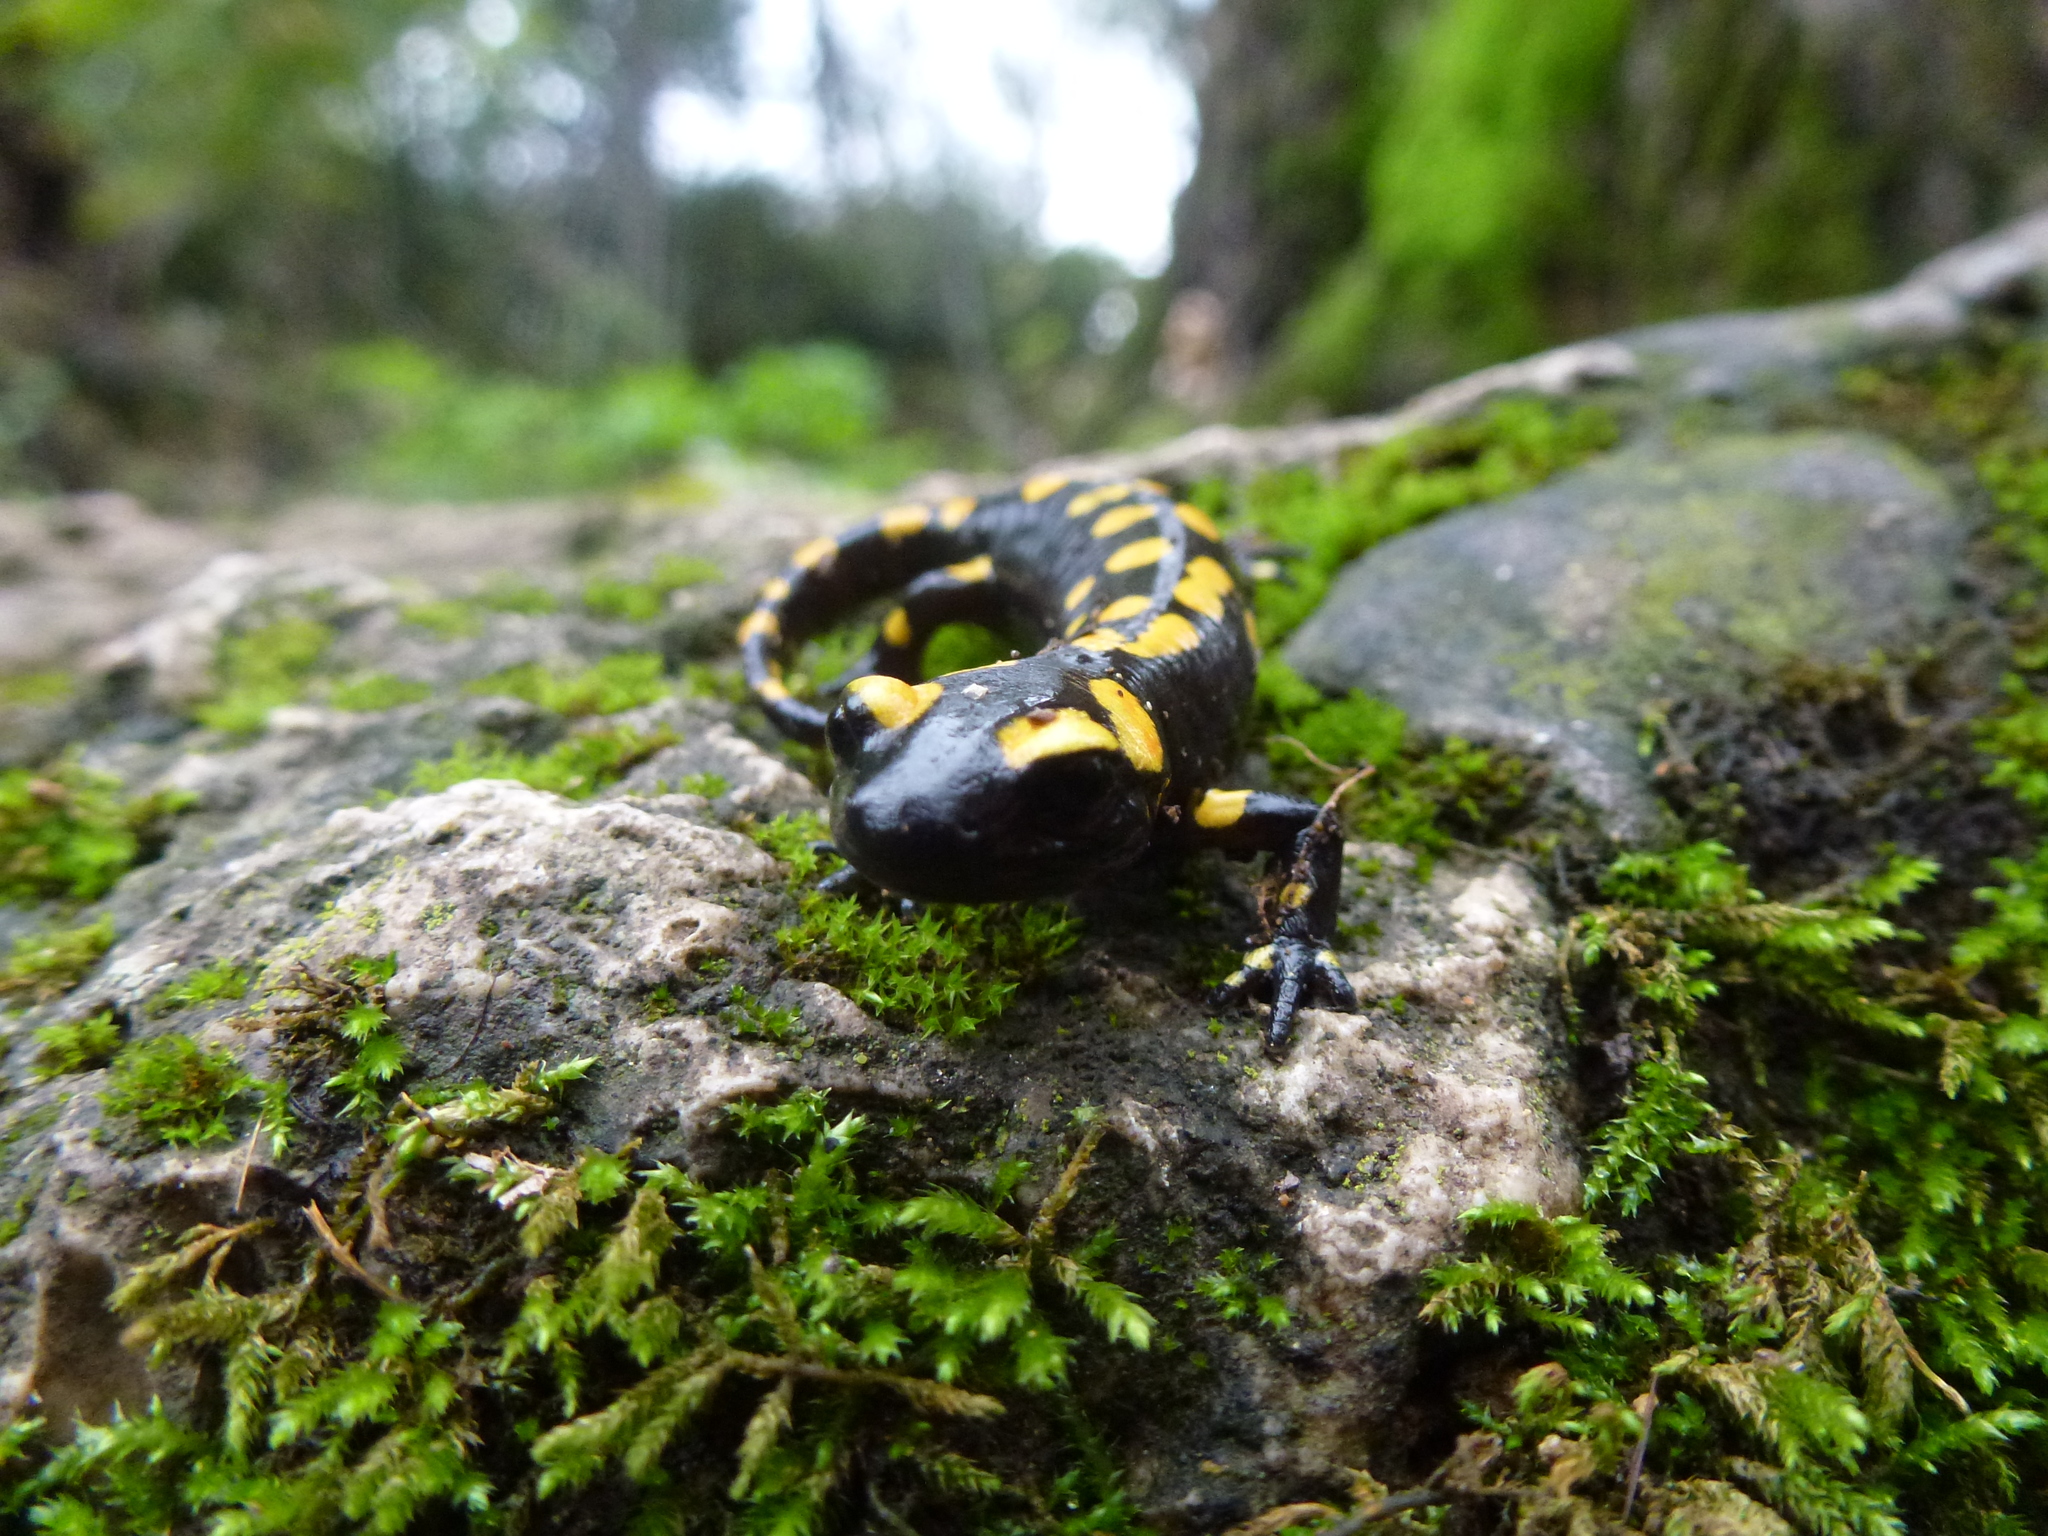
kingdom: Animalia
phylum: Chordata
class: Amphibia
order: Caudata
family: Salamandridae
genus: Salamandra
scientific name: Salamandra infraimmaculata
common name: Near-eastern fire salamander
